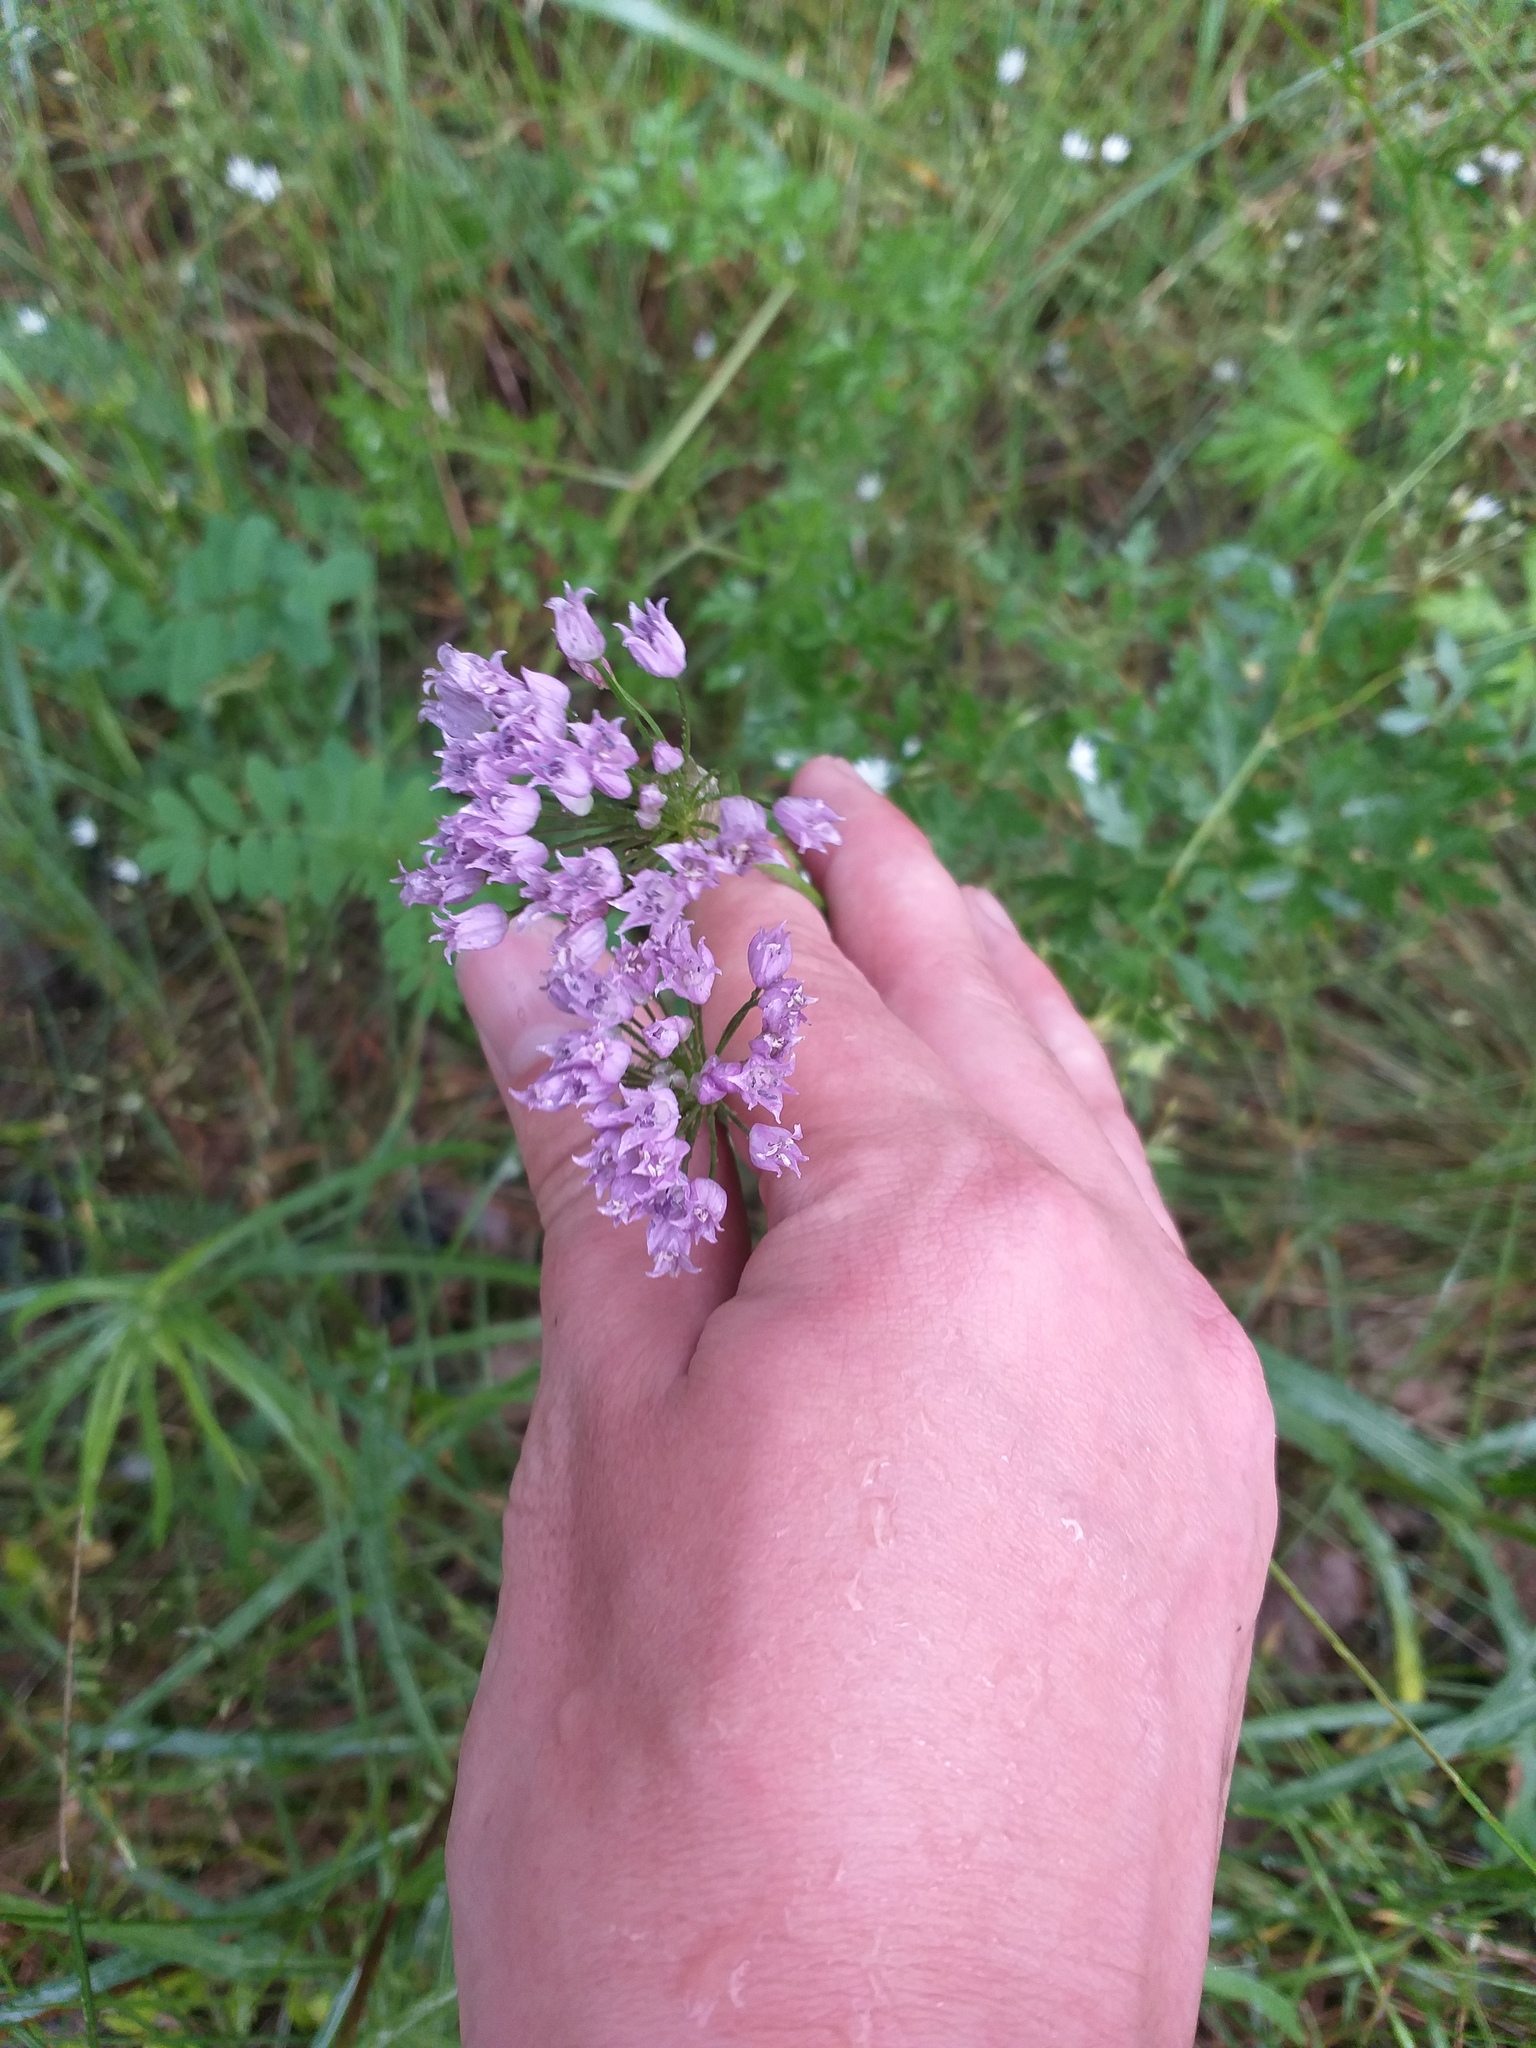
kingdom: Plantae
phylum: Tracheophyta
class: Liliopsida
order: Asparagales
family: Amaryllidaceae
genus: Allium
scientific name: Allium angulosum
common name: Mouse garlic
